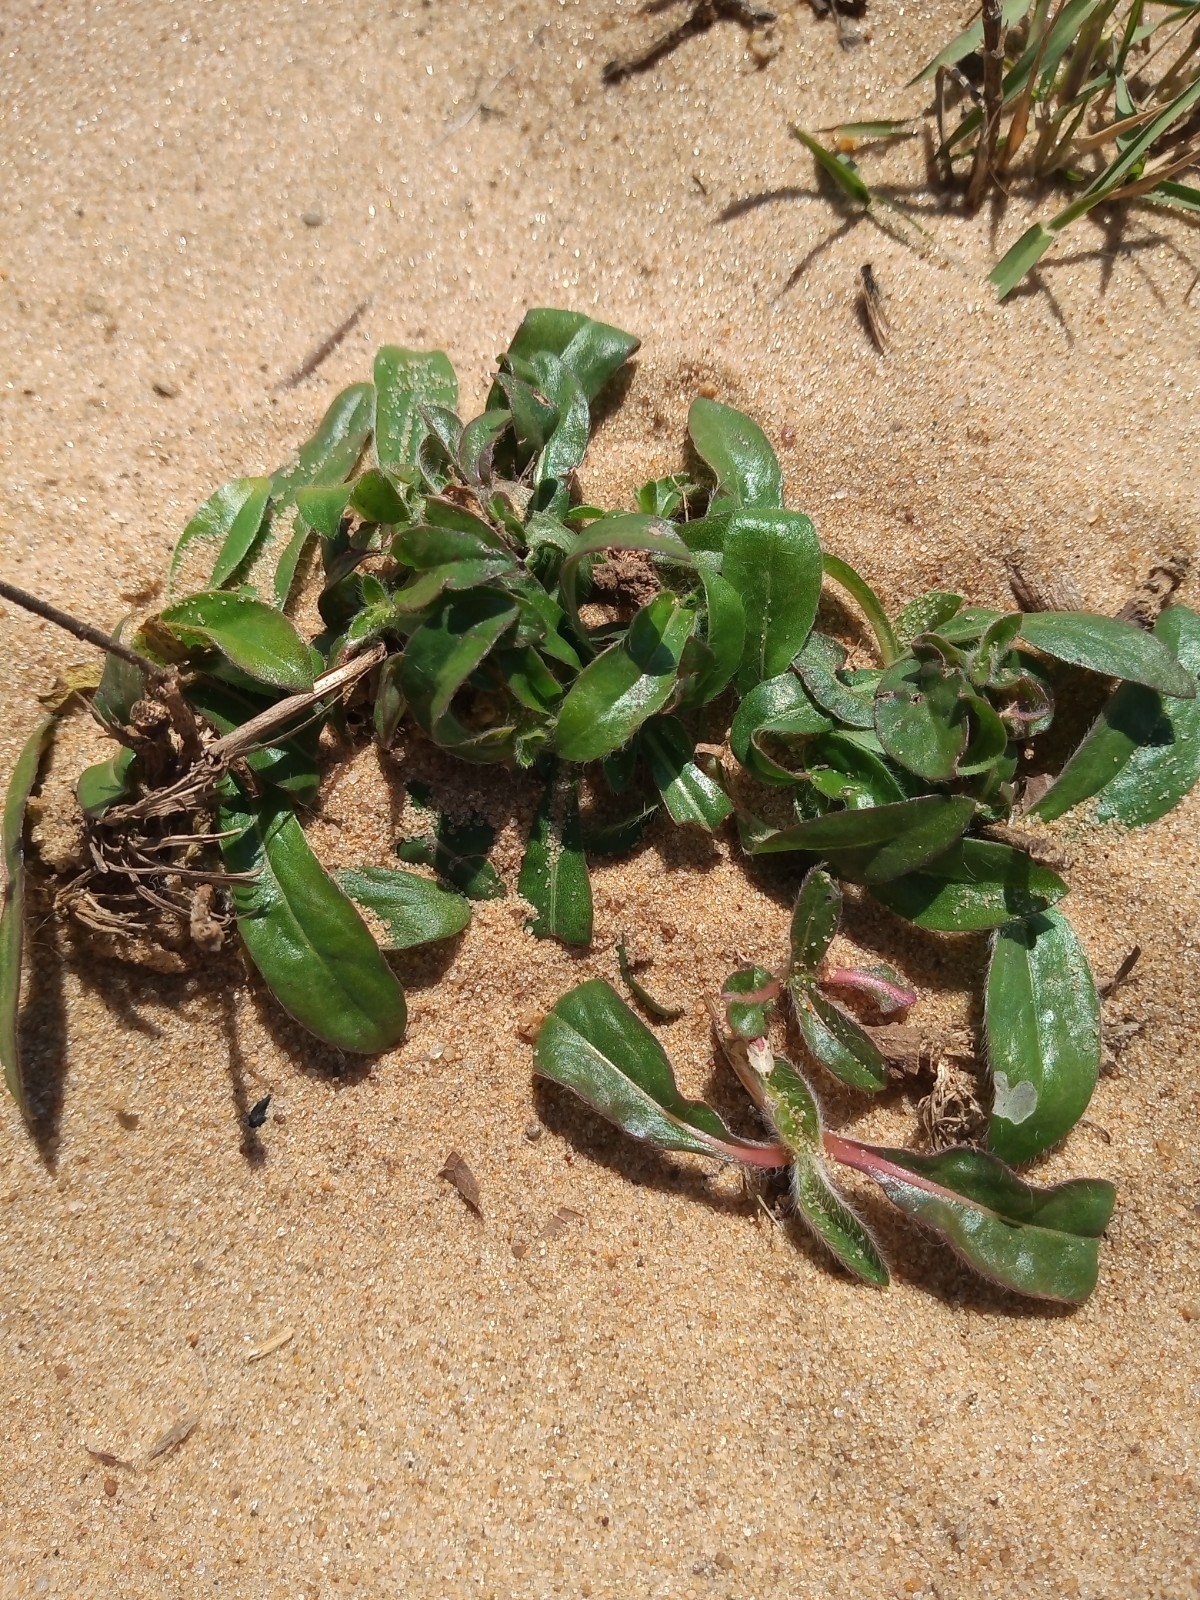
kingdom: Plantae
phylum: Tracheophyta
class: Magnoliopsida
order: Caryophyllales
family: Amaranthaceae
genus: Gomphrena
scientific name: Gomphrena celosioides
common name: Gomphrena-weed
